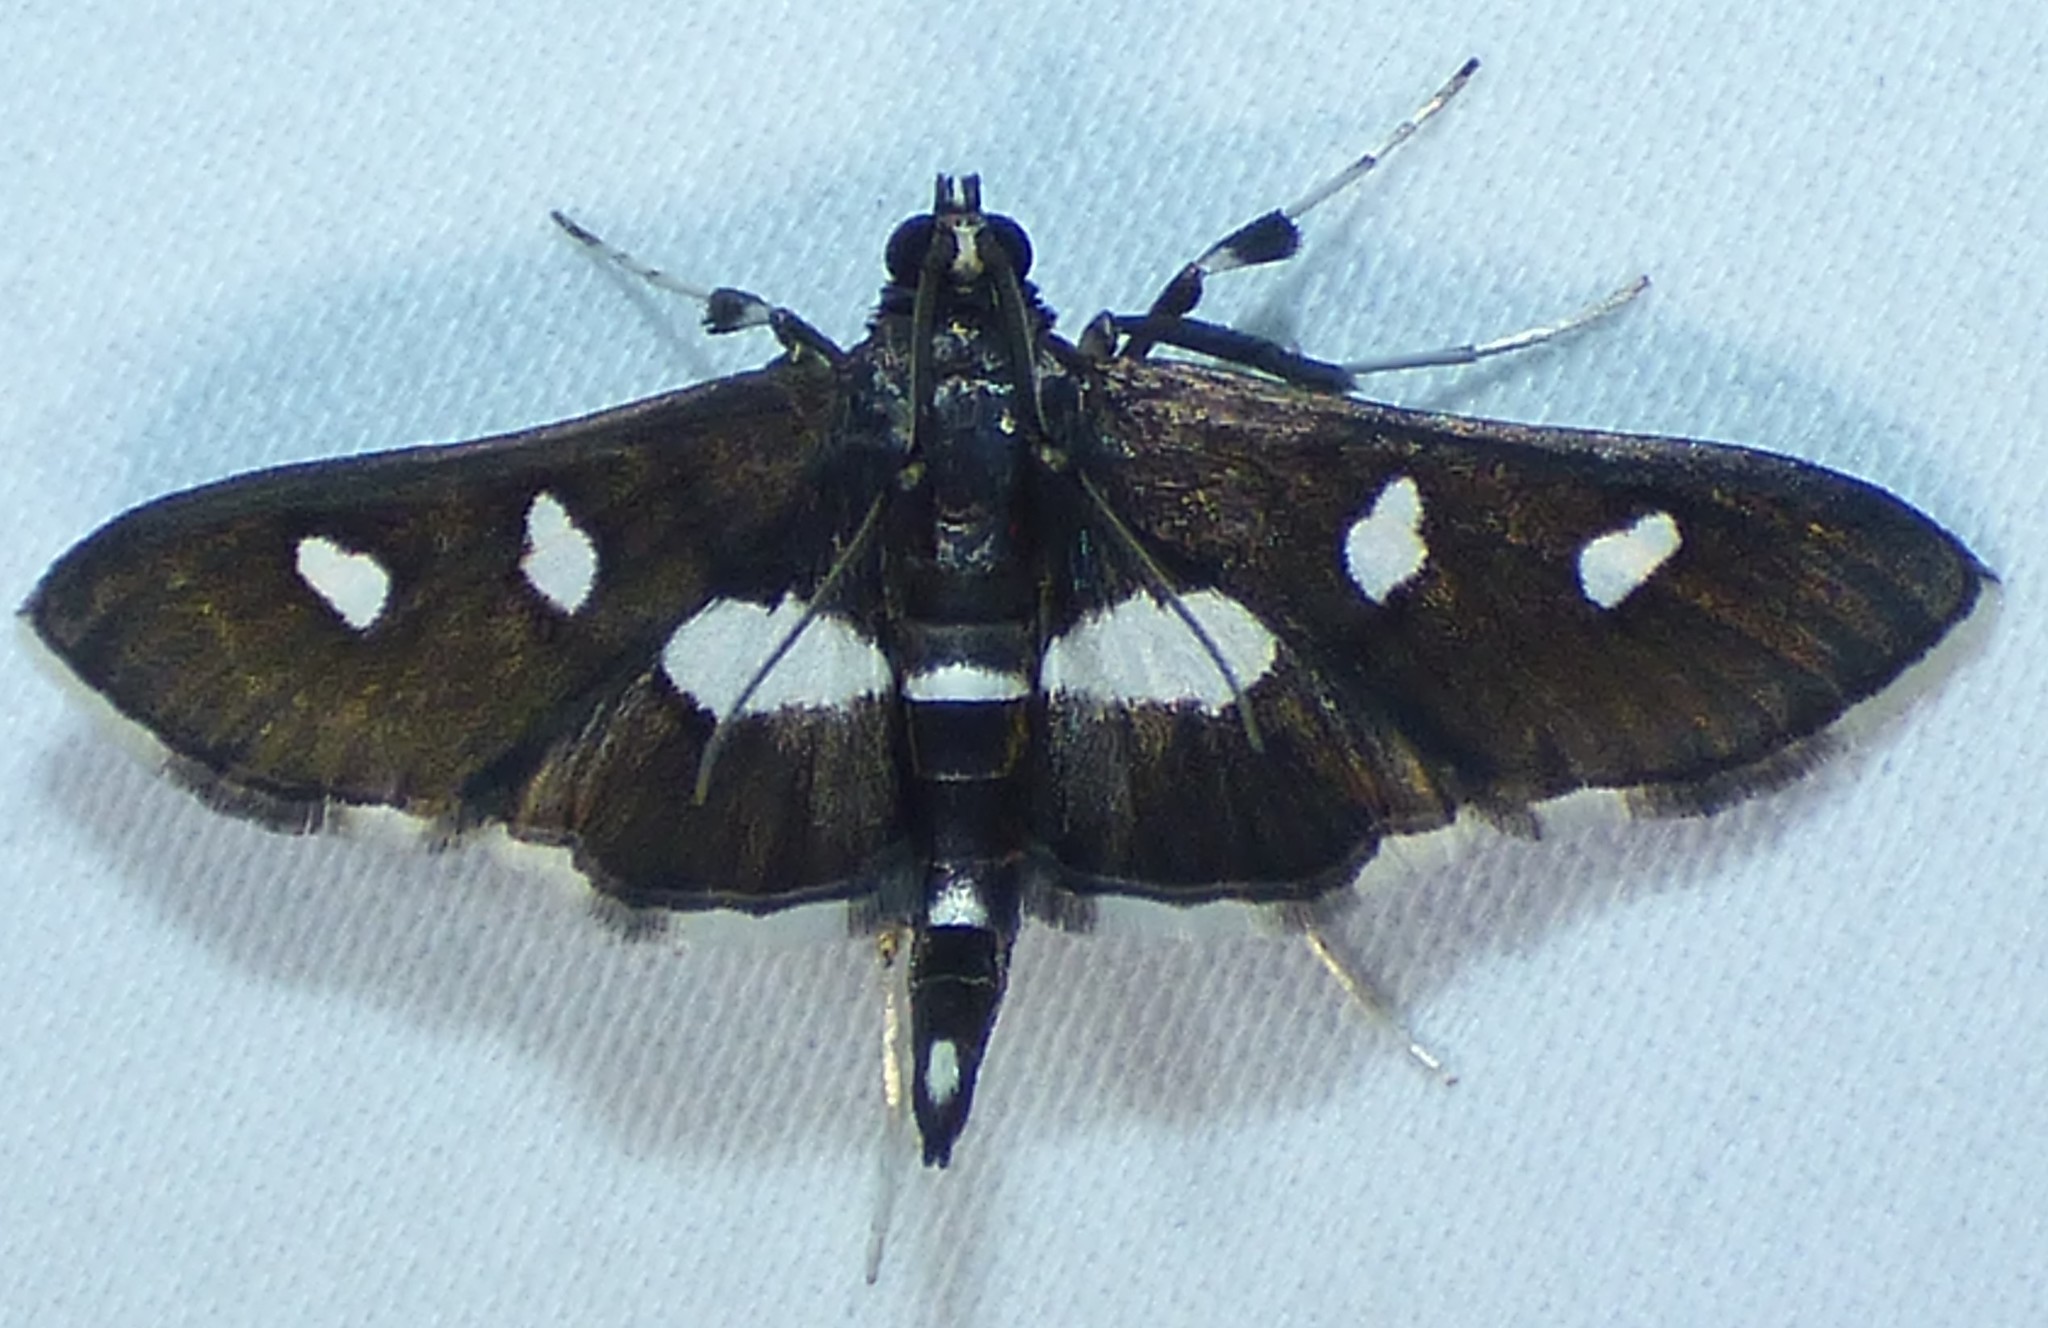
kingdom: Animalia
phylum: Arthropoda
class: Insecta
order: Lepidoptera
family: Crambidae
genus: Desmia
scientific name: Desmia funeralis
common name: Grape leaf folder moth
